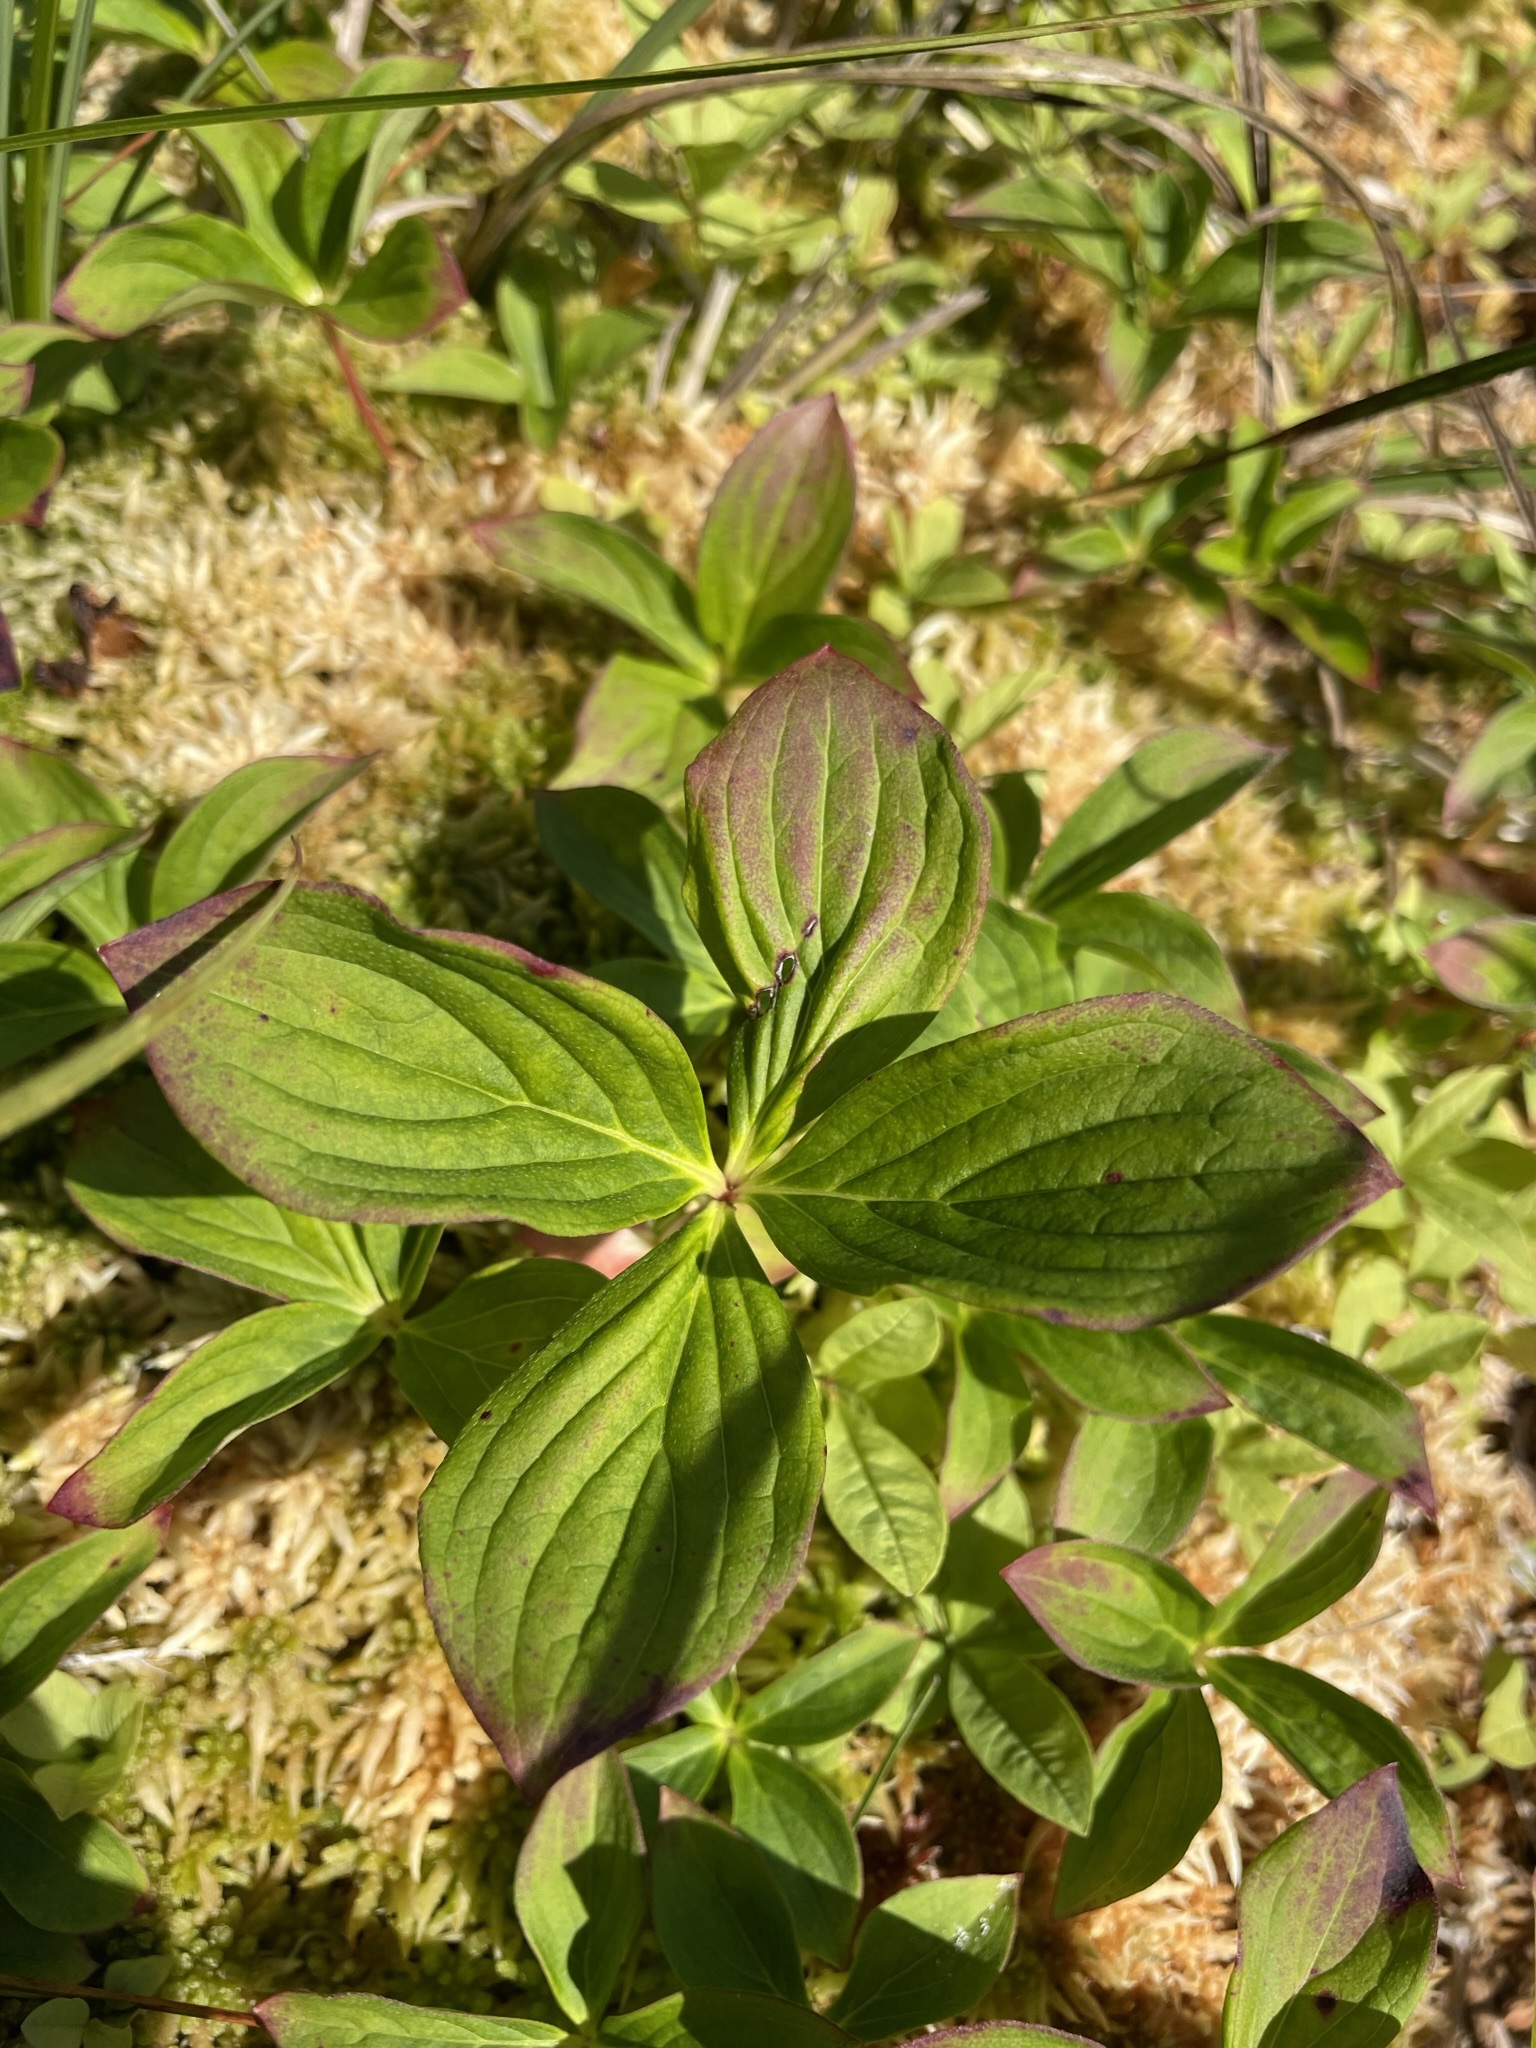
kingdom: Plantae
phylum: Tracheophyta
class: Magnoliopsida
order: Cornales
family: Cornaceae
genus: Cornus
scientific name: Cornus unalaschkensis
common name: Alaska bunchberry
